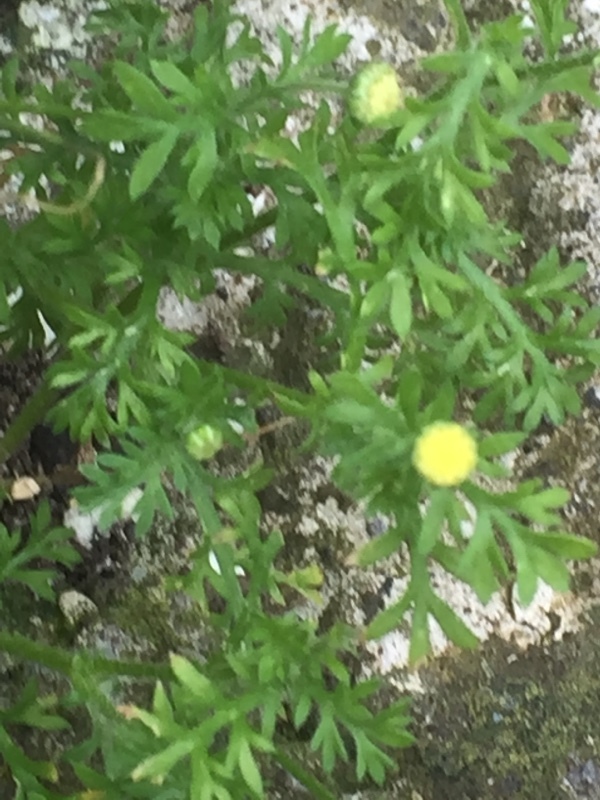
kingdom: Plantae
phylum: Tracheophyta
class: Magnoliopsida
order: Asterales
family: Asteraceae
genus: Cotula
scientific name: Cotula australis
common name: Australian waterbuttons
